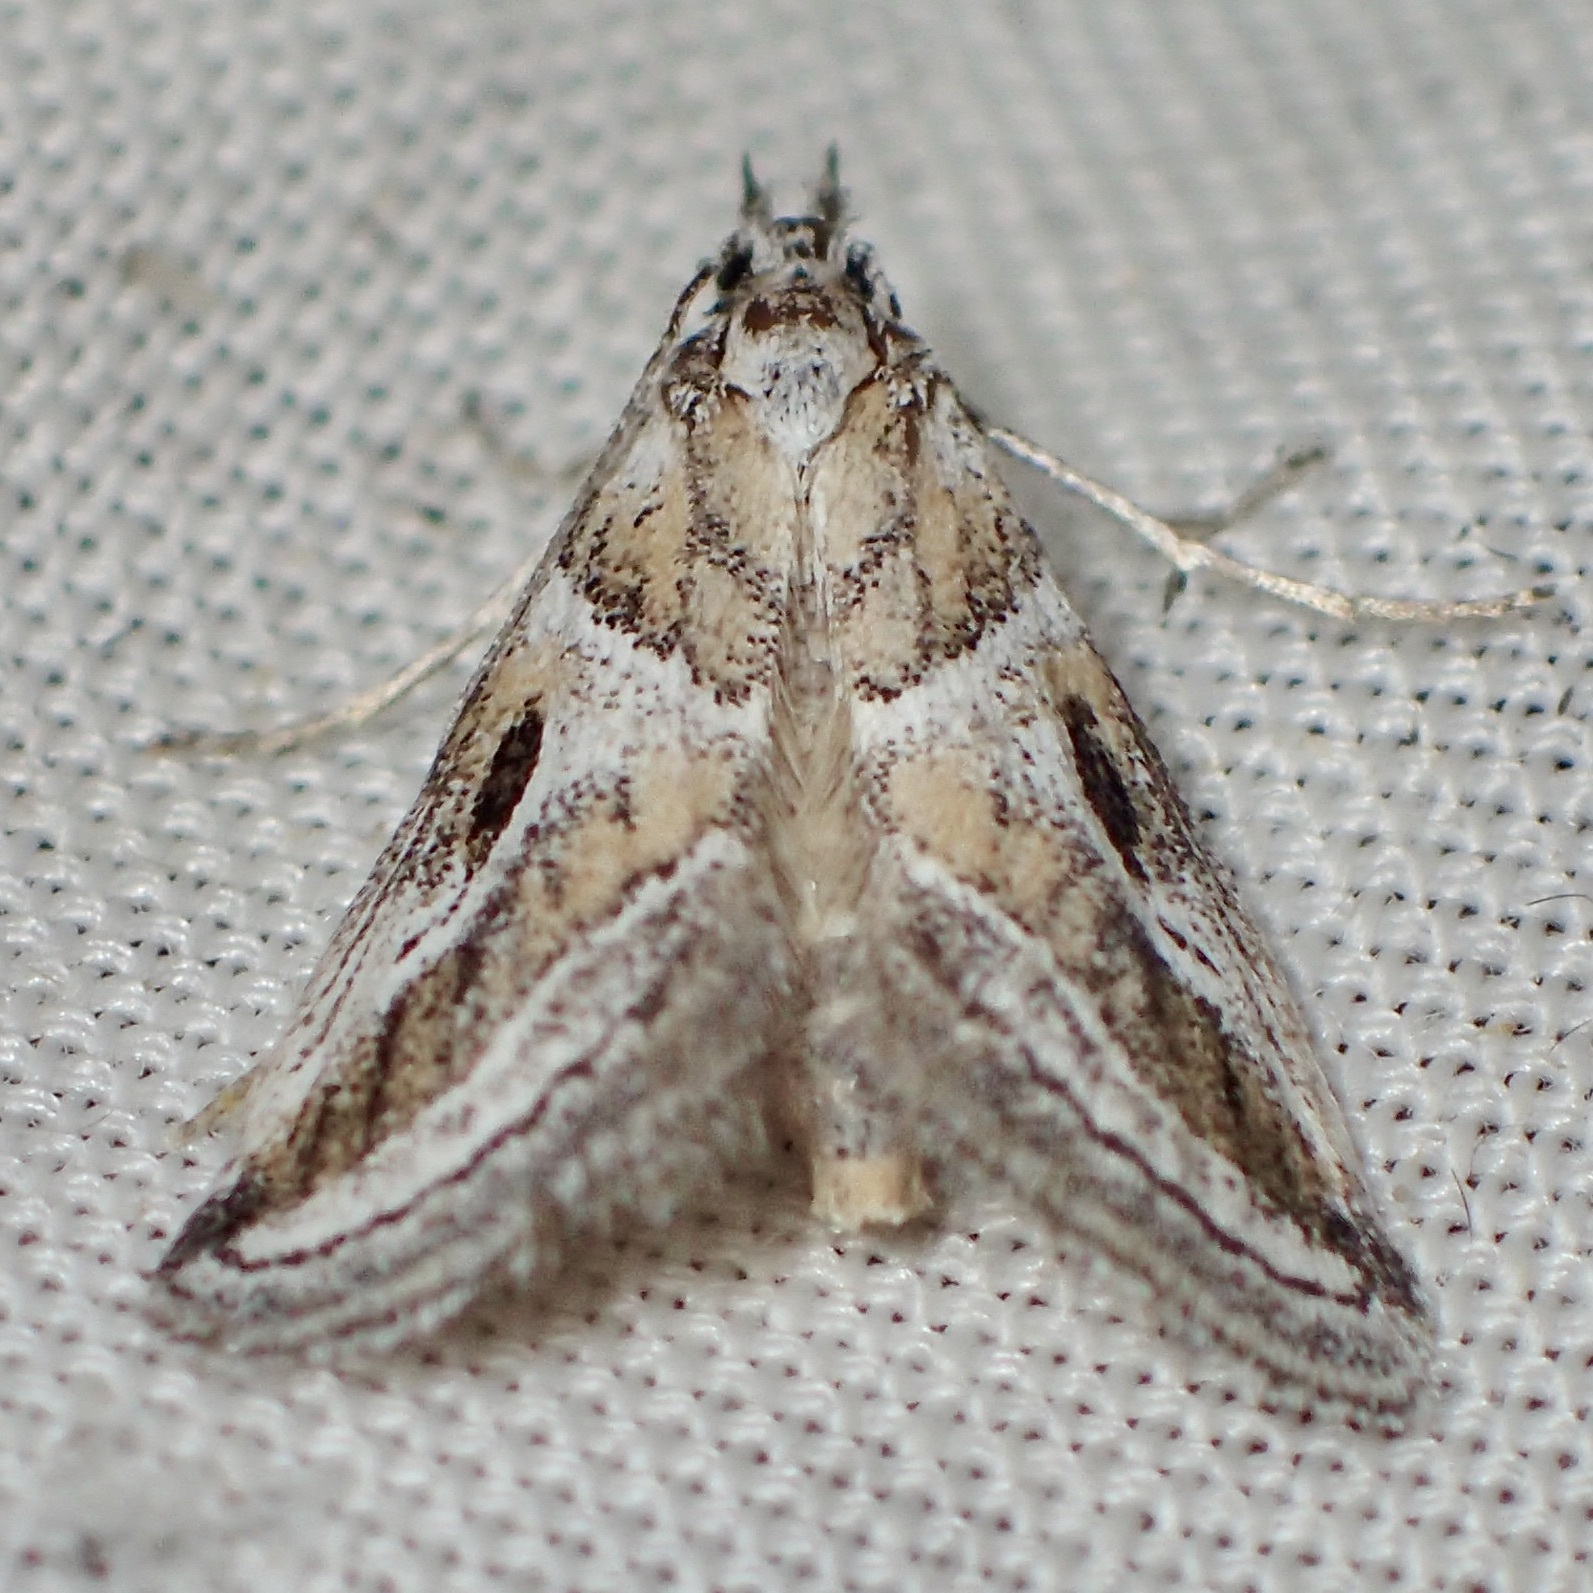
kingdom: Animalia
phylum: Arthropoda
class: Insecta
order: Lepidoptera
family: Pyralidae
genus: Alpheias
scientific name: Alpheias Decaturia pectinalis
